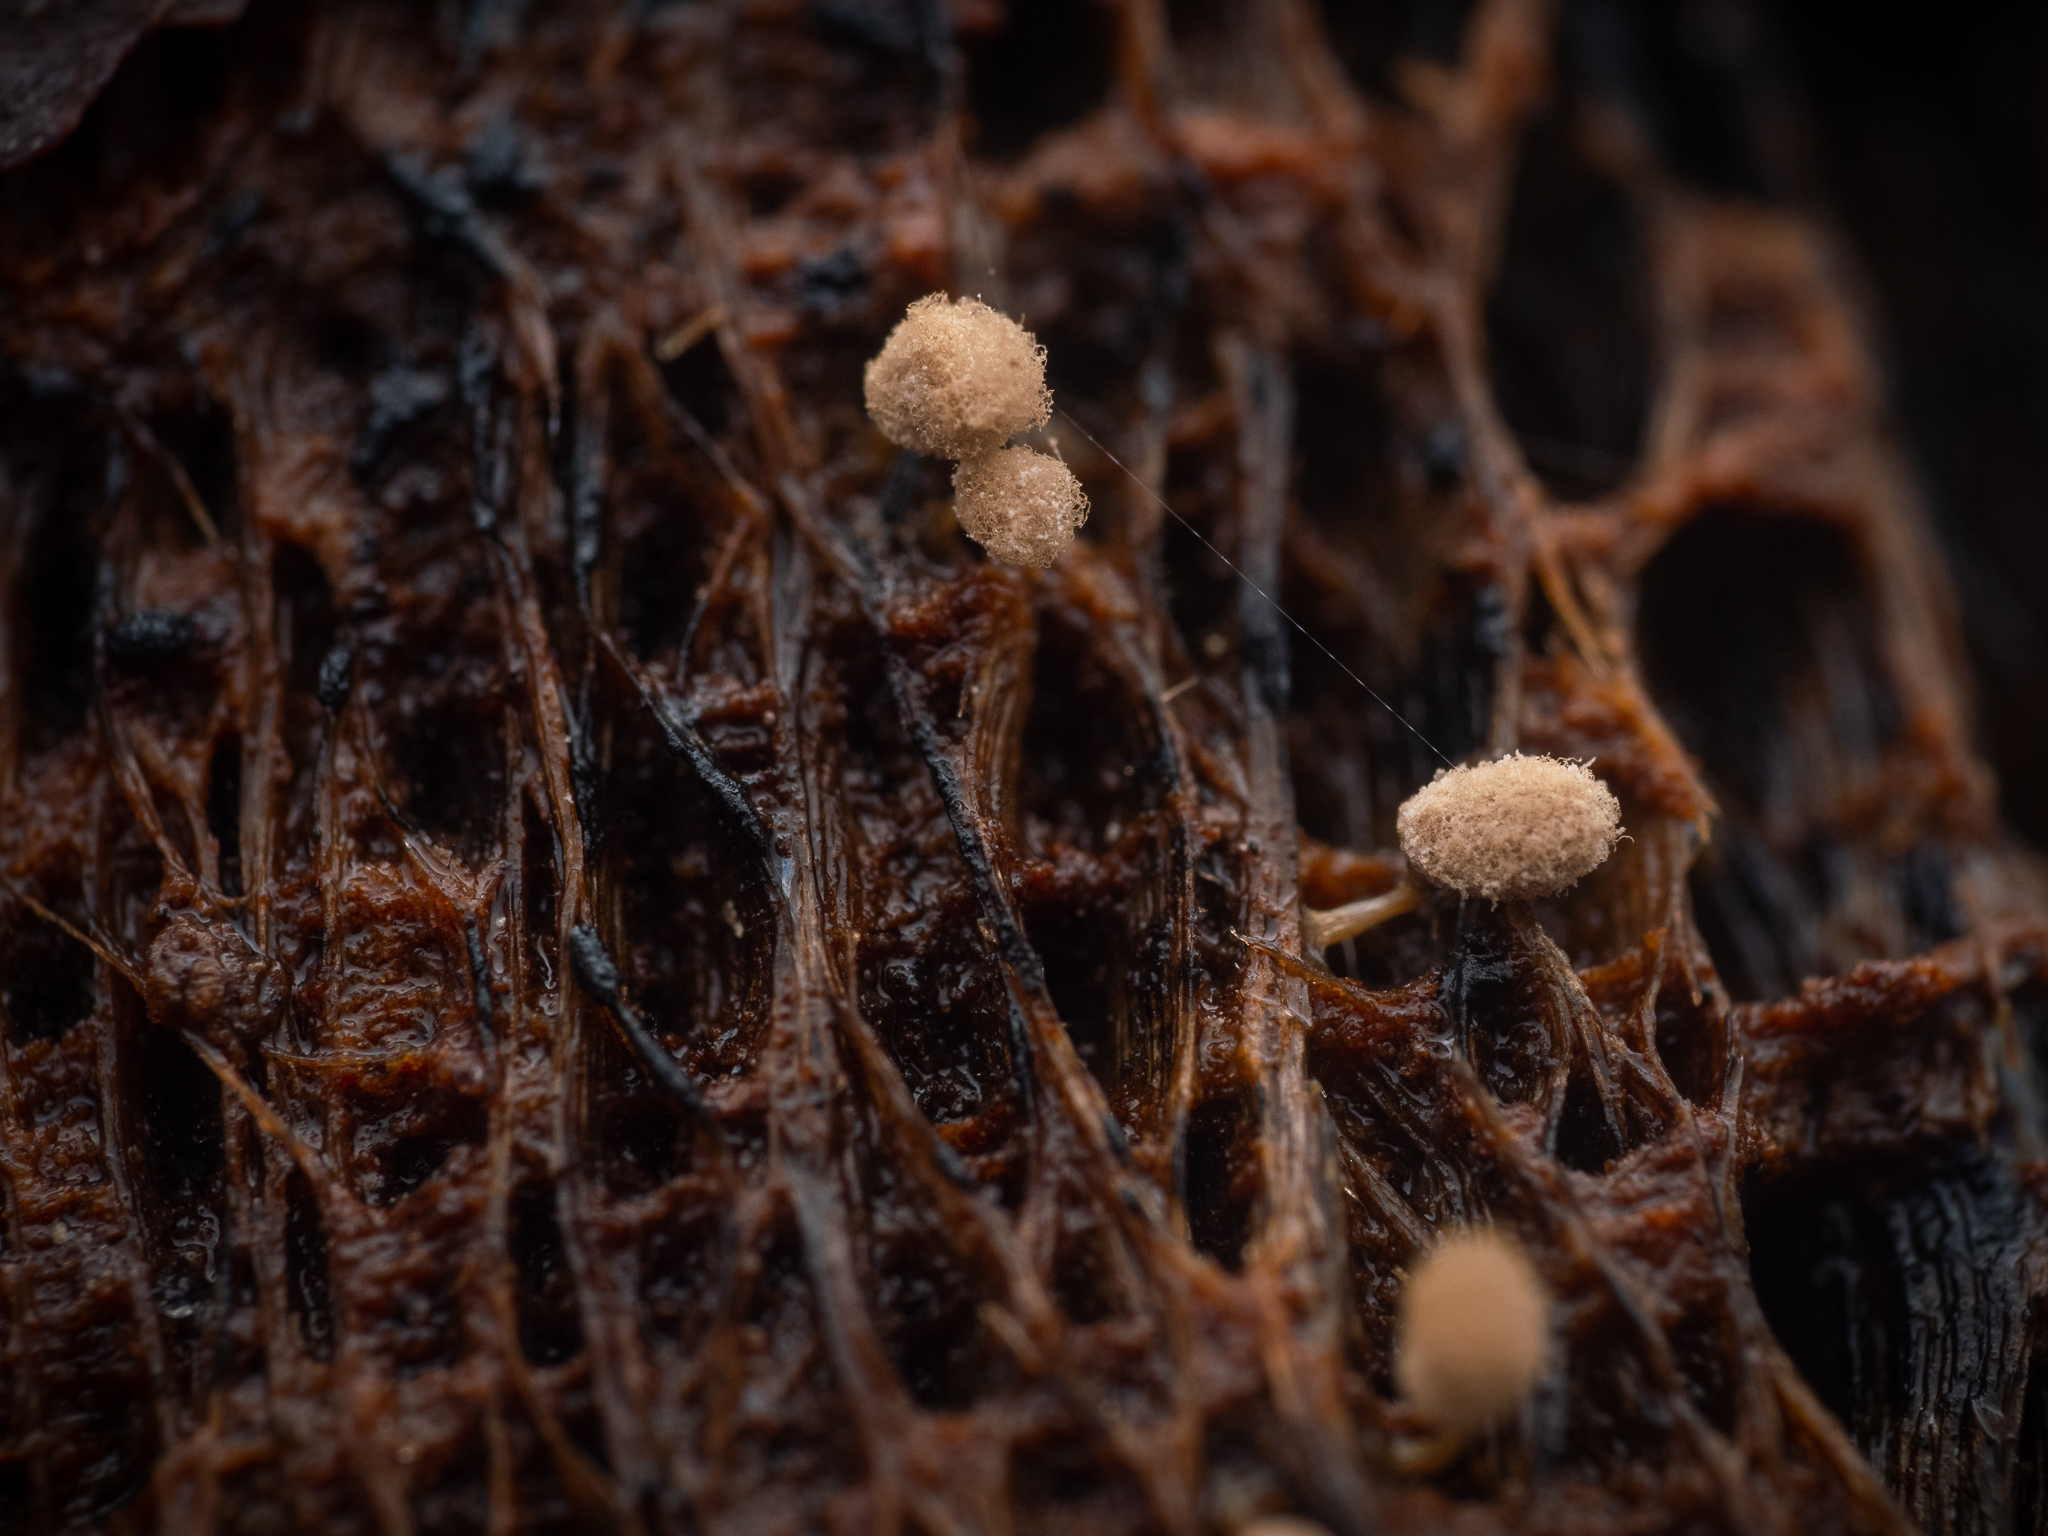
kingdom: Protozoa
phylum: Mycetozoa
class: Myxomycetes
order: Trichiales
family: Arcyriaceae
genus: Arcyria
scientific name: Arcyria cinerea
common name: White carnival candy slime mold
